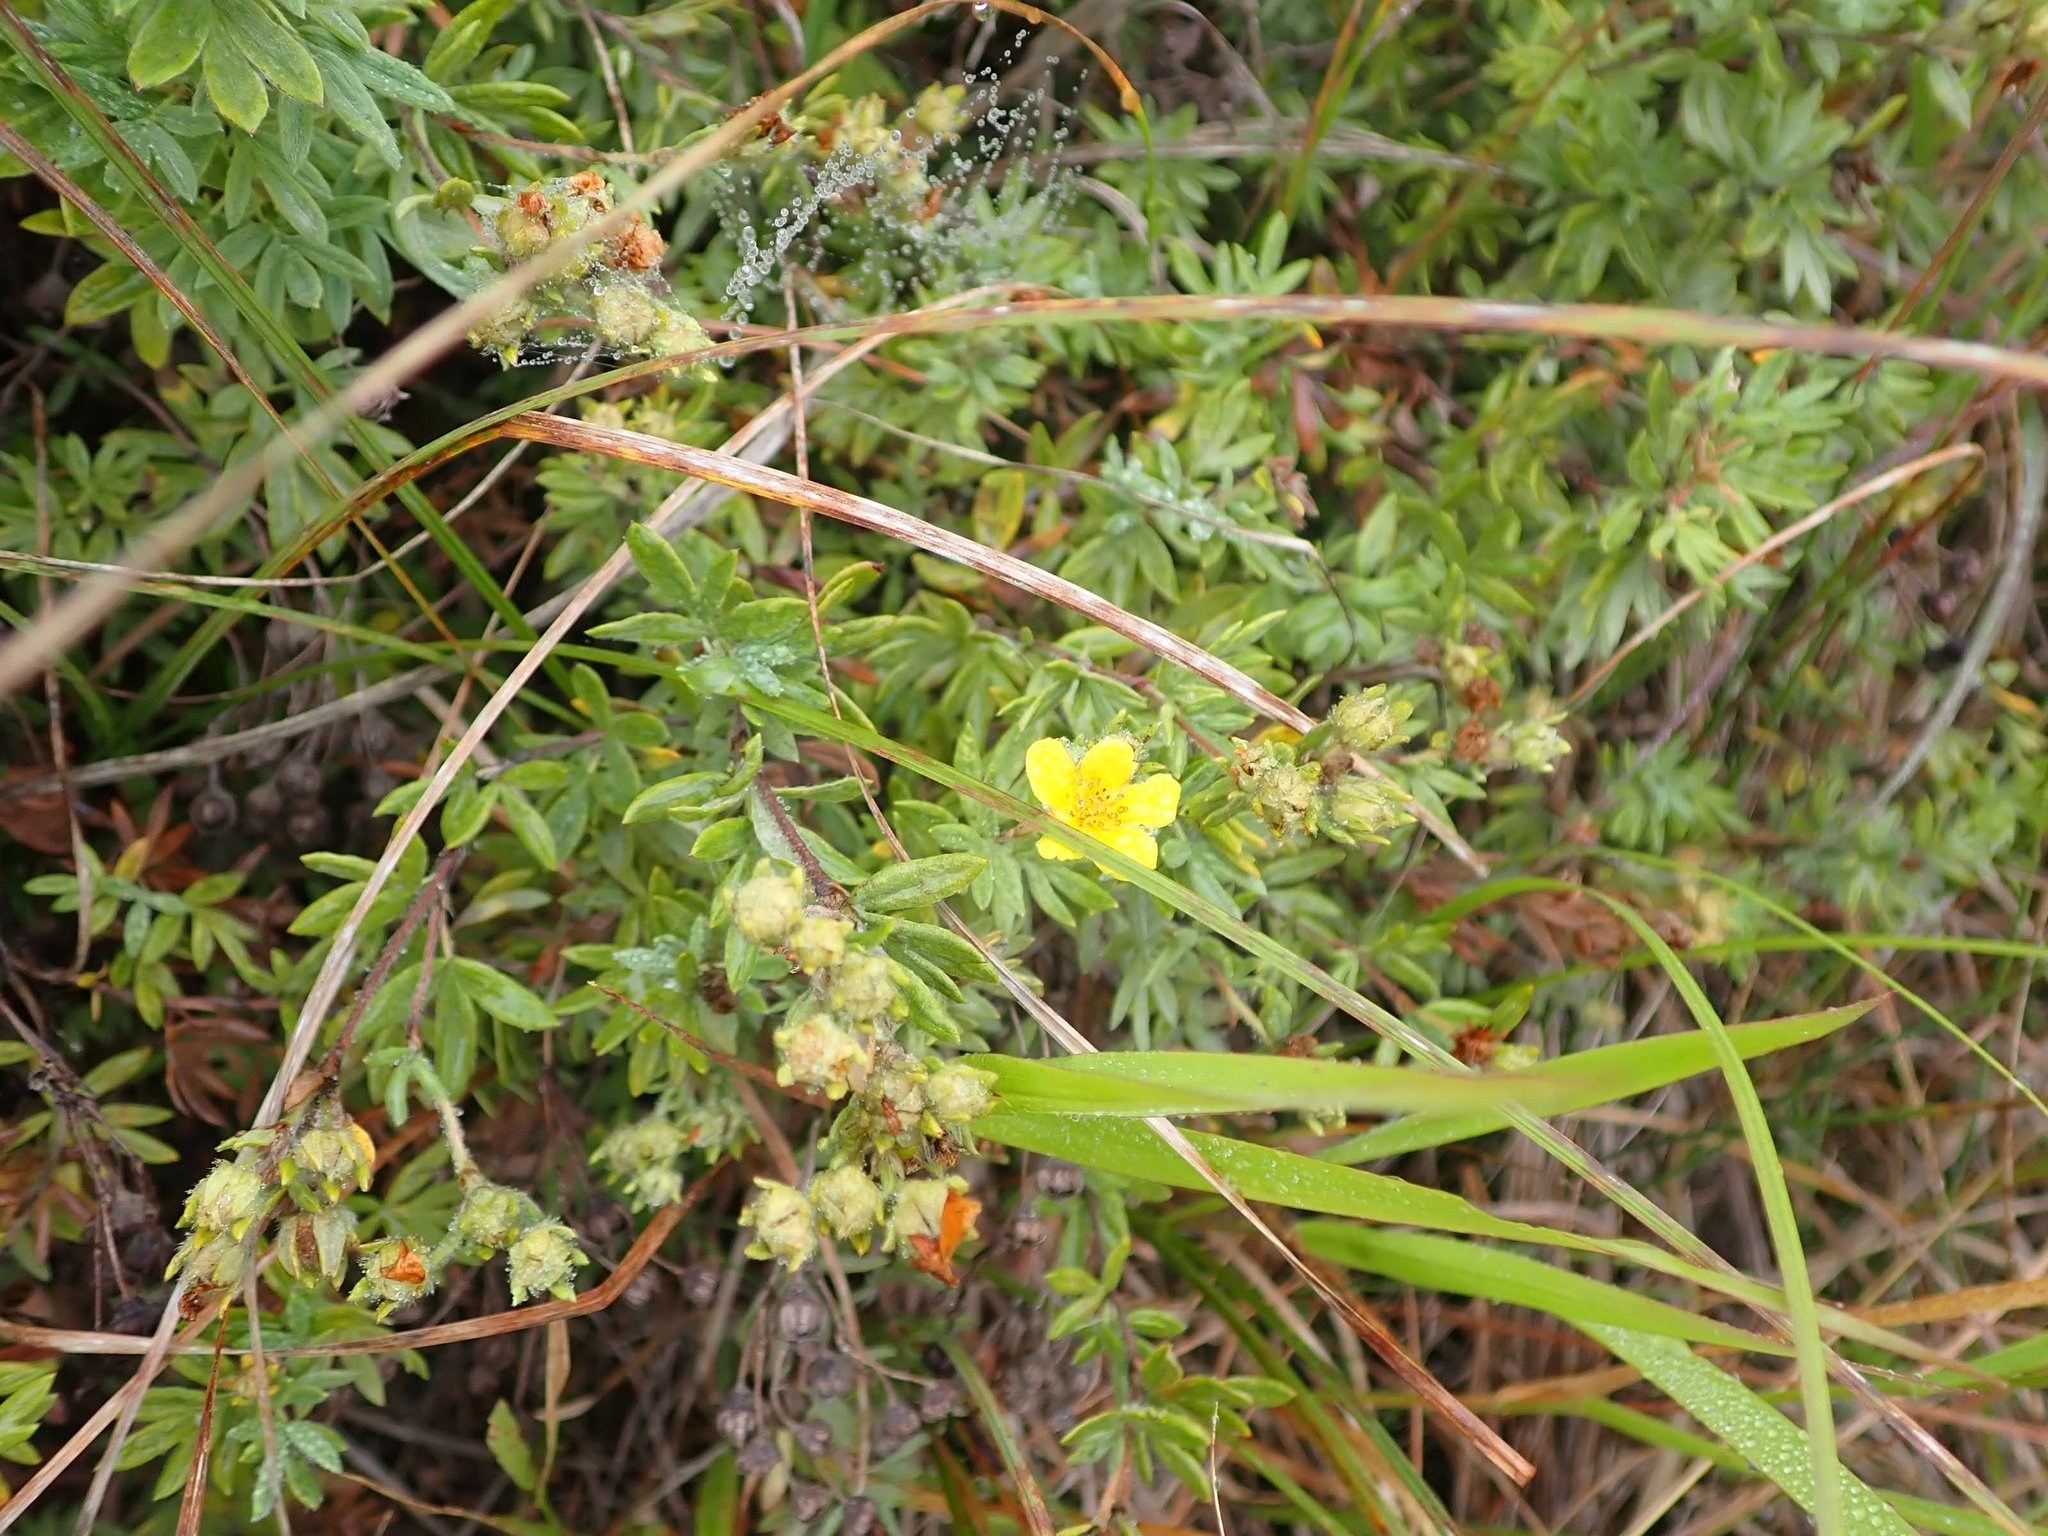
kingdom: Plantae
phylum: Tracheophyta
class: Magnoliopsida
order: Rosales
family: Rosaceae
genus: Dasiphora
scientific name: Dasiphora fruticosa
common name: Shrubby cinquefoil
